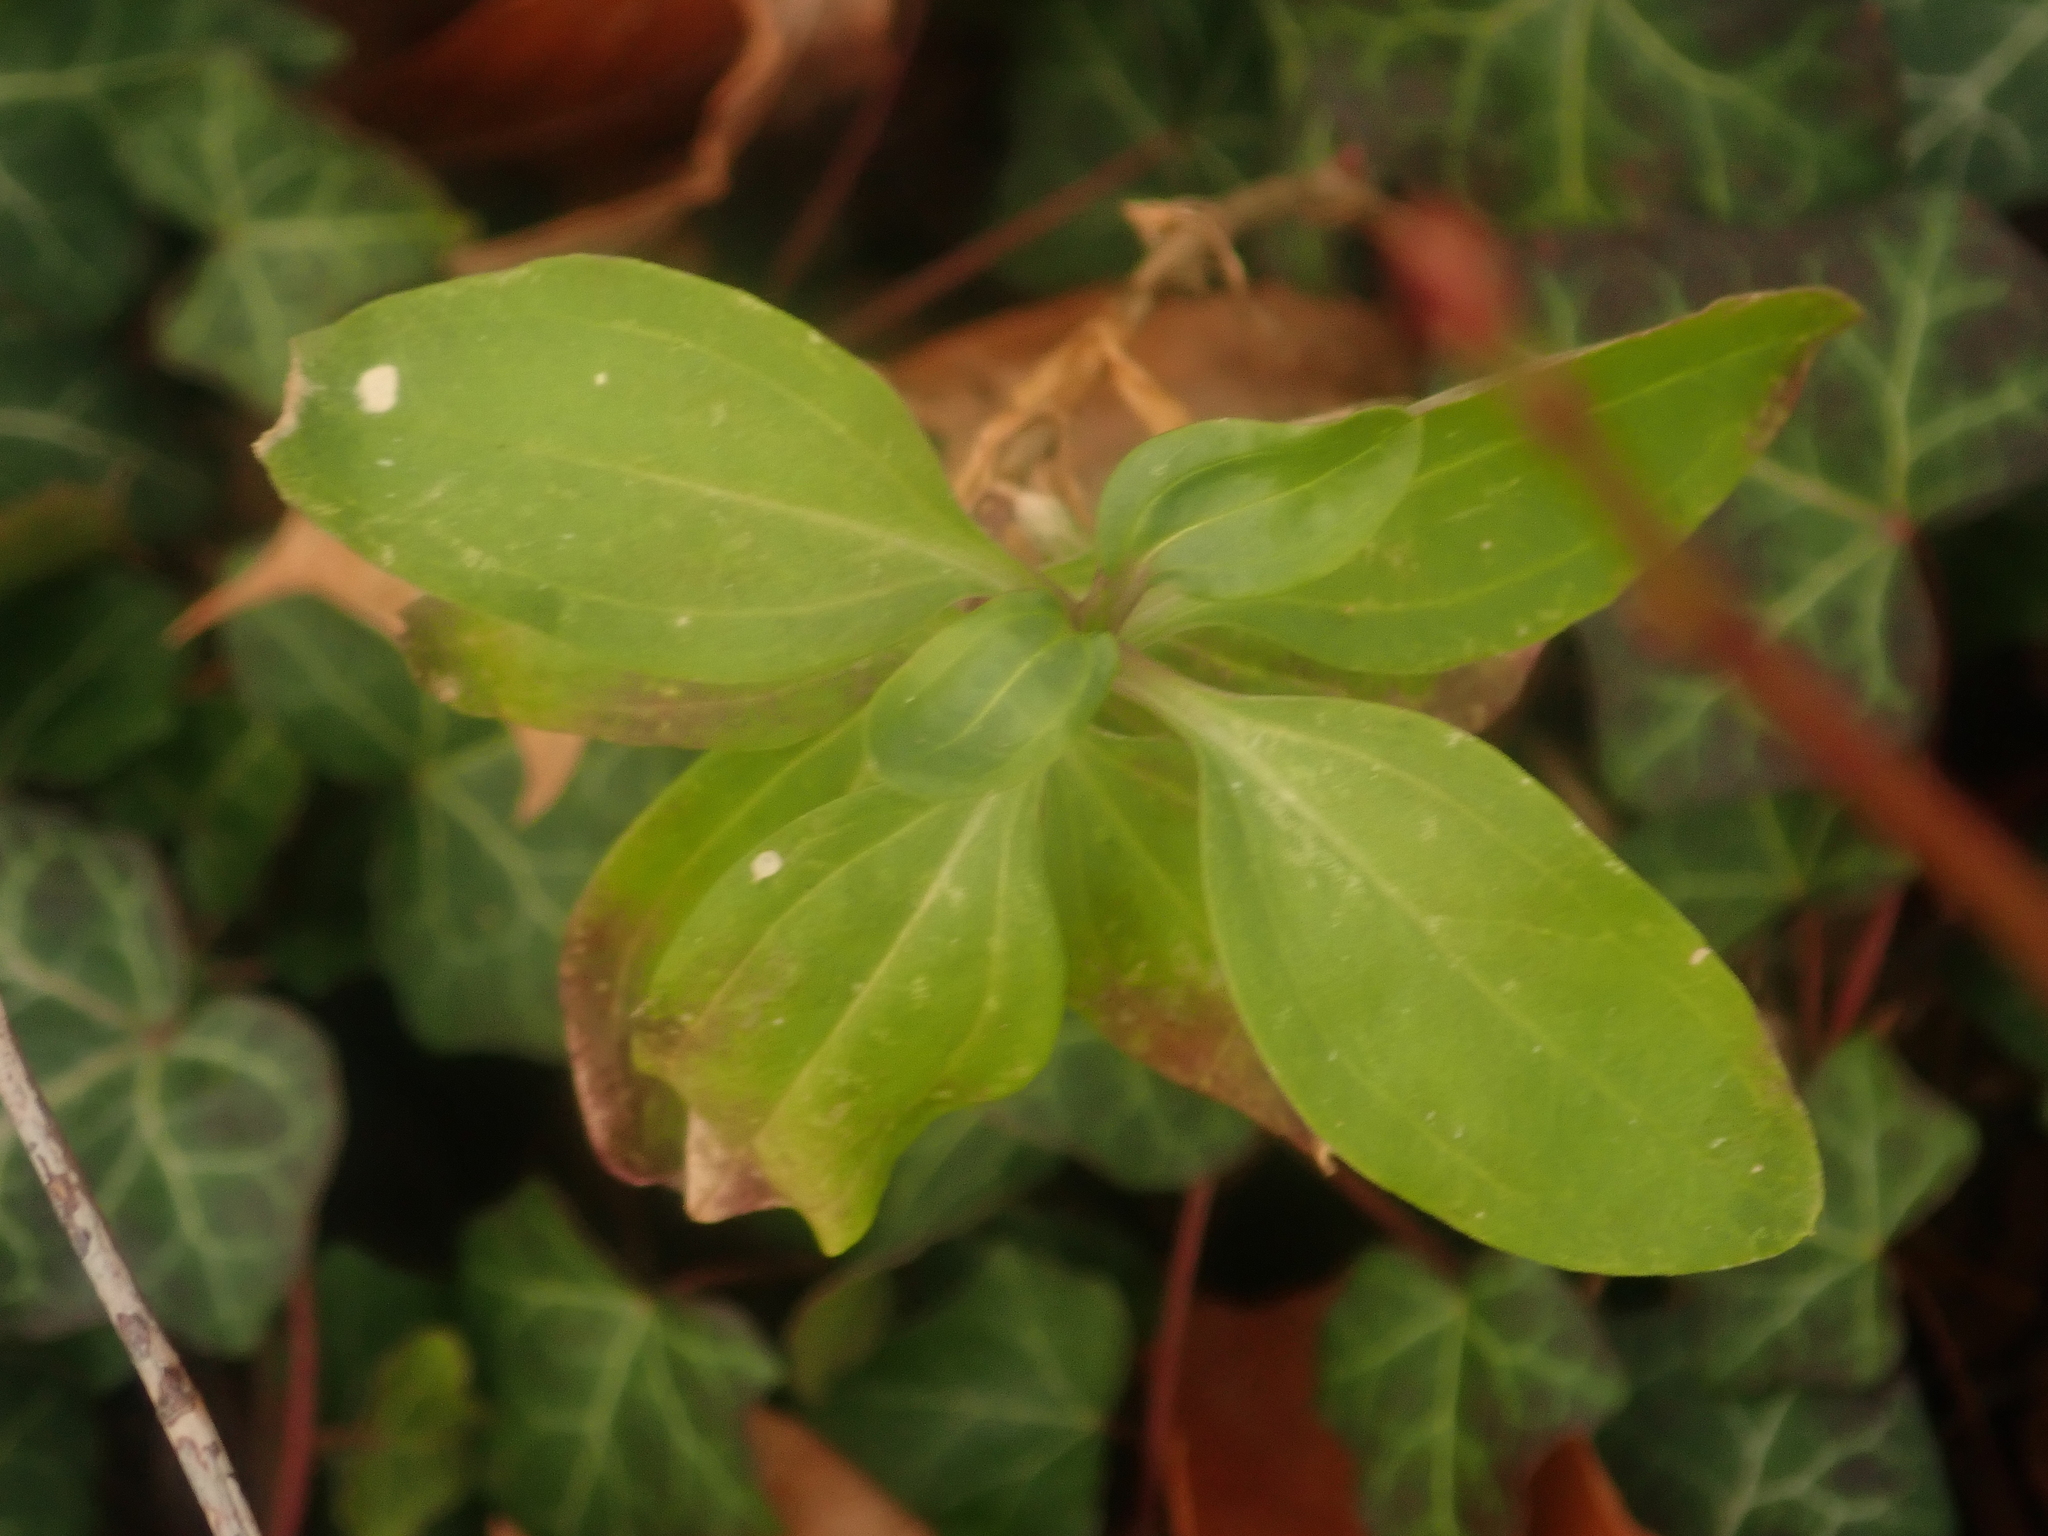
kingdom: Plantae
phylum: Tracheophyta
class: Magnoliopsida
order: Caryophyllales
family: Caryophyllaceae
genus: Saponaria
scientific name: Saponaria officinalis
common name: Soapwort
